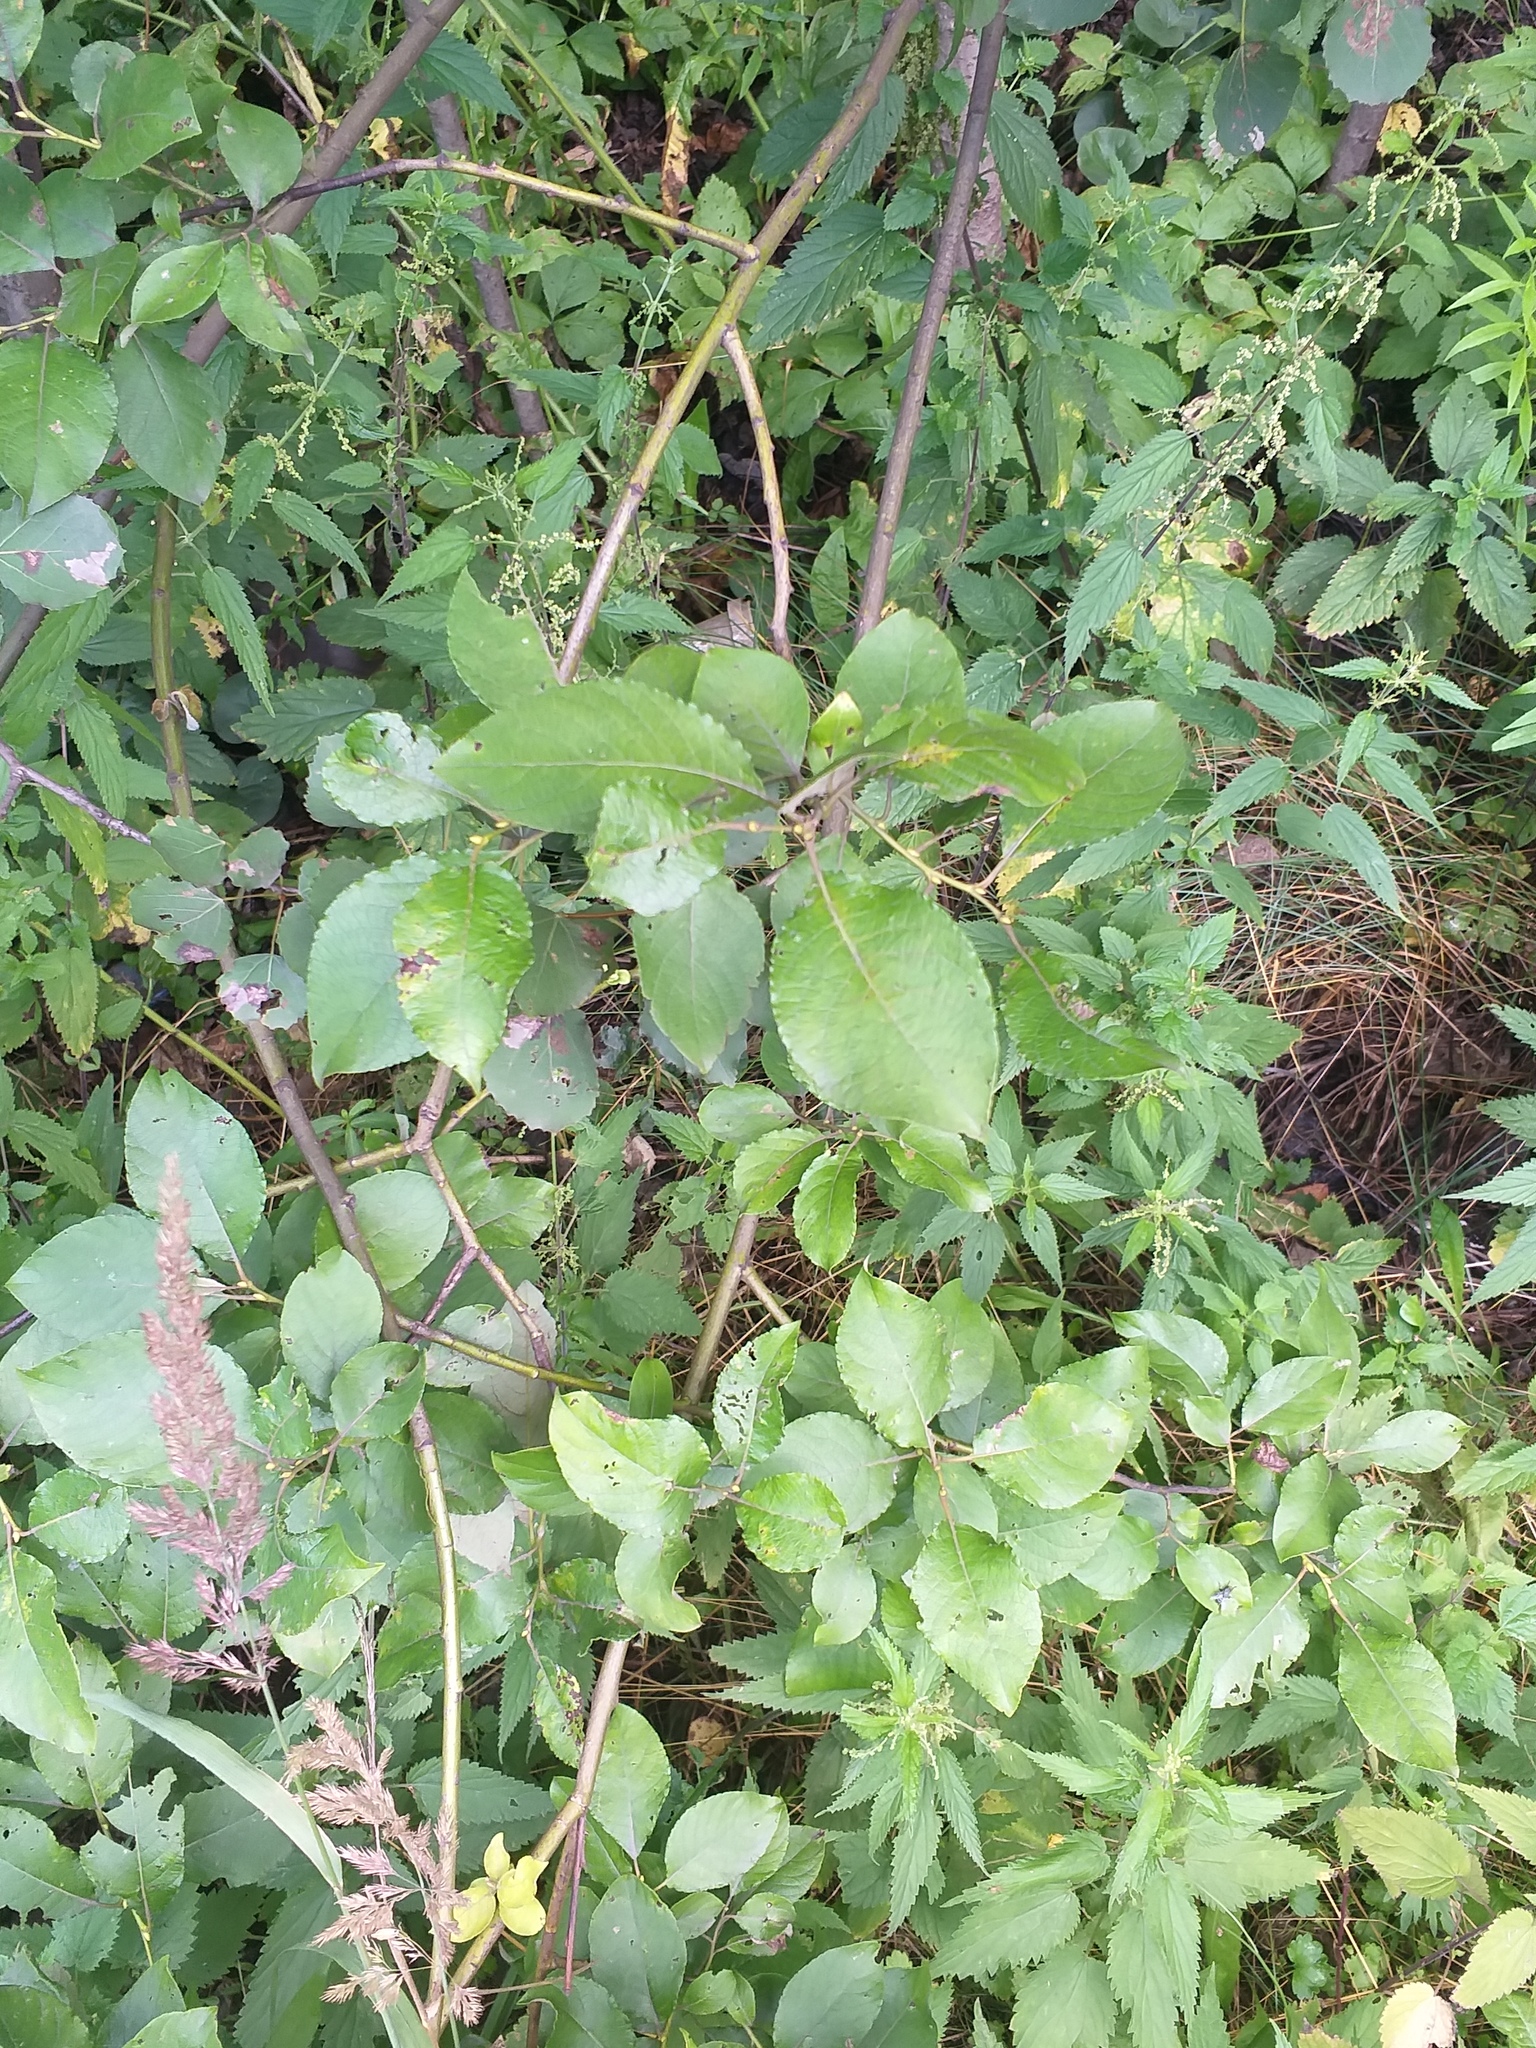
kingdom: Plantae
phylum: Tracheophyta
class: Magnoliopsida
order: Malpighiales
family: Salicaceae
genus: Salix
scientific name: Salix caprea
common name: Goat willow
